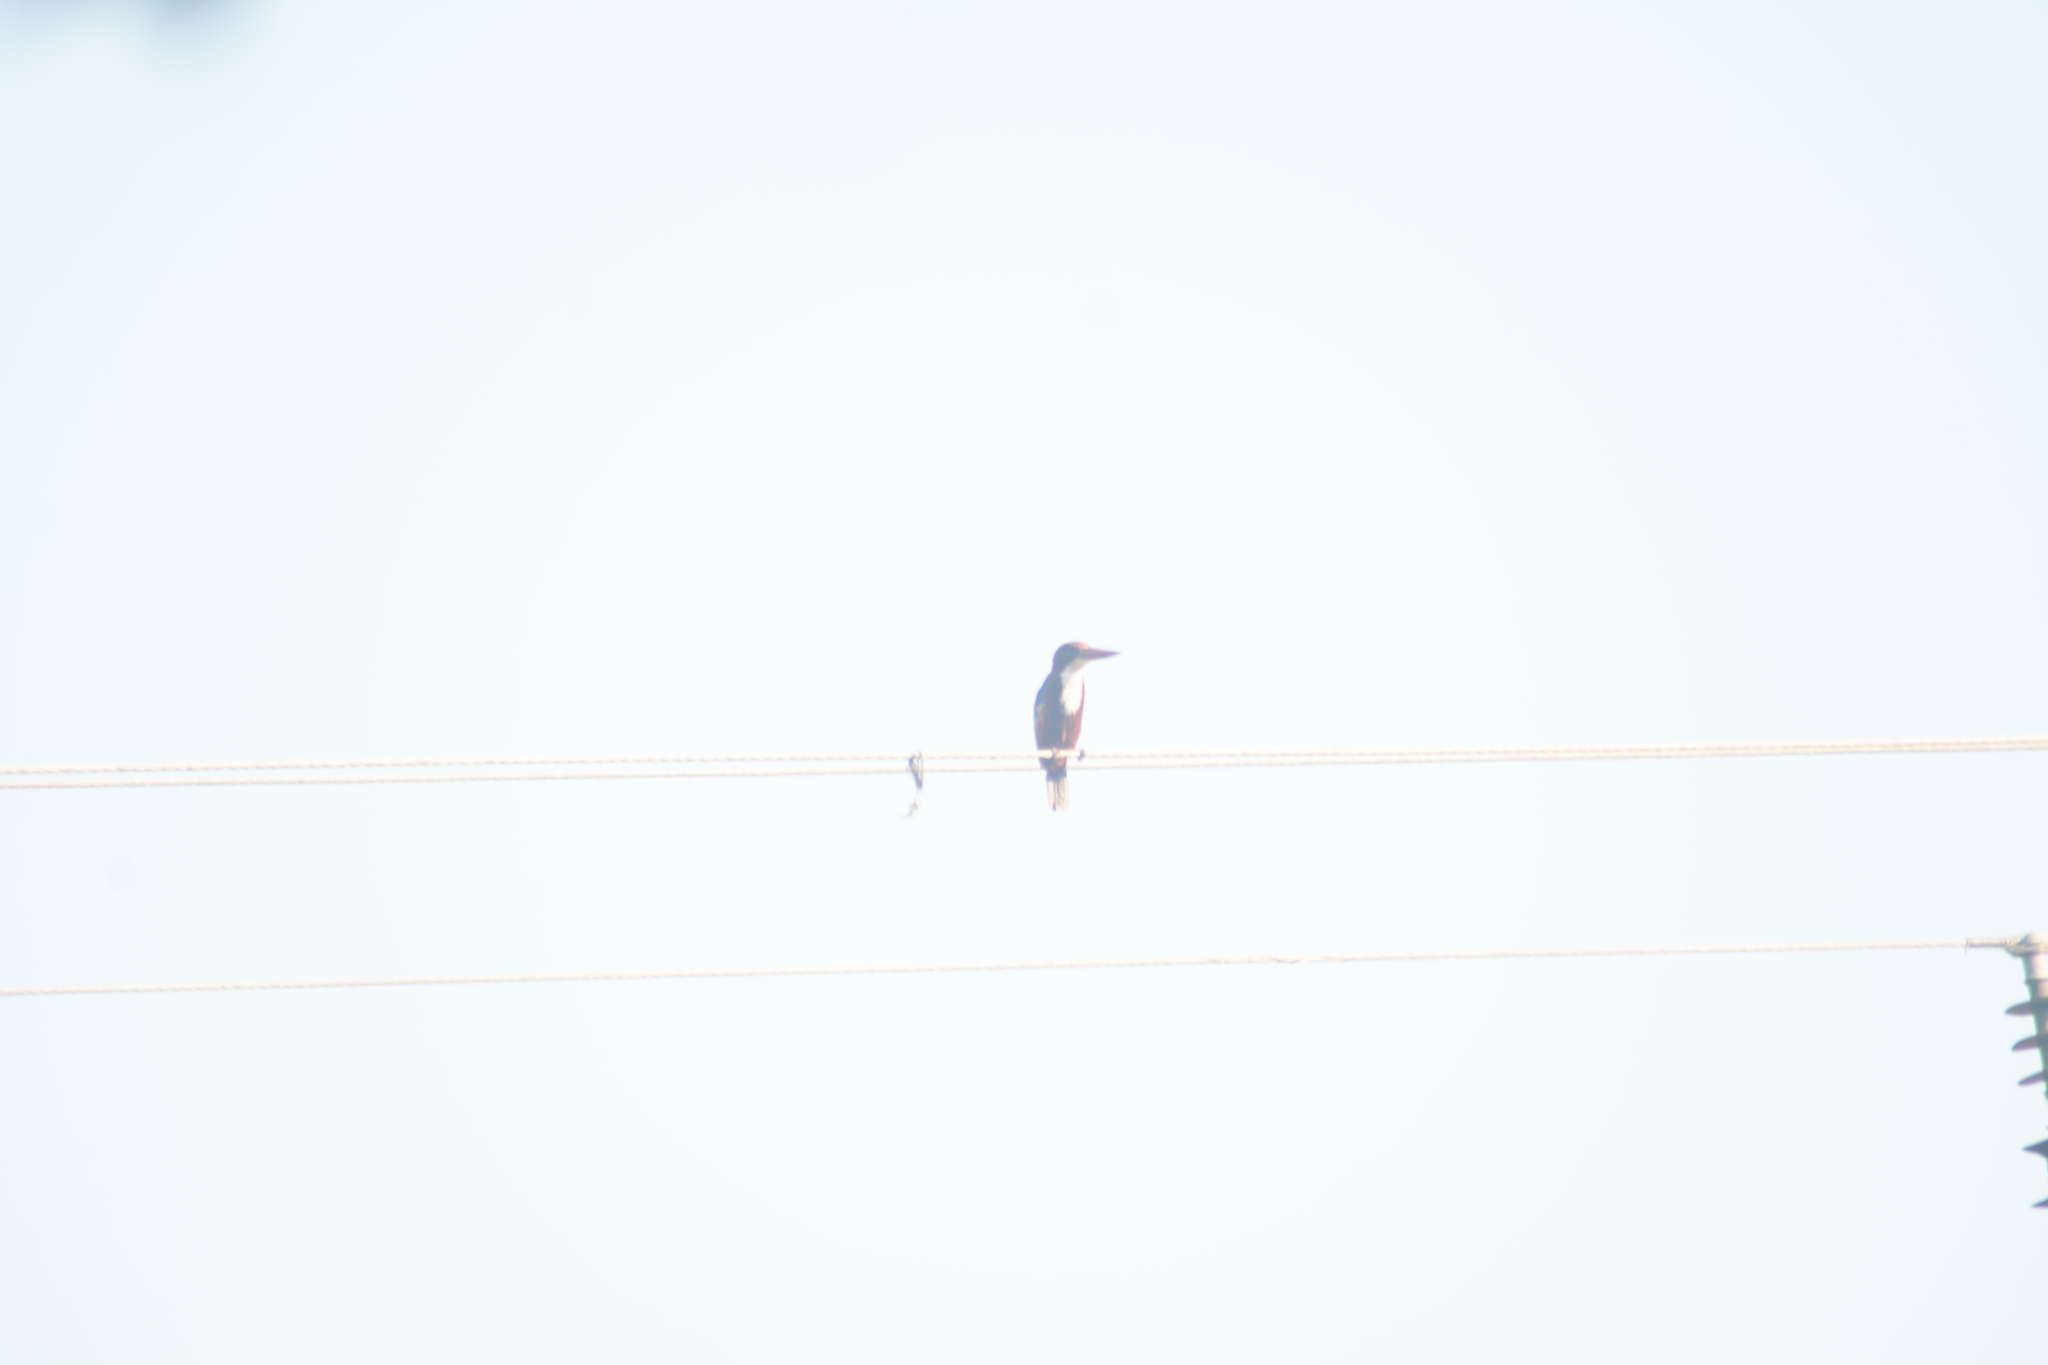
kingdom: Animalia
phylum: Chordata
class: Aves
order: Coraciiformes
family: Alcedinidae
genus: Halcyon
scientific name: Halcyon smyrnensis
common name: White-throated kingfisher
